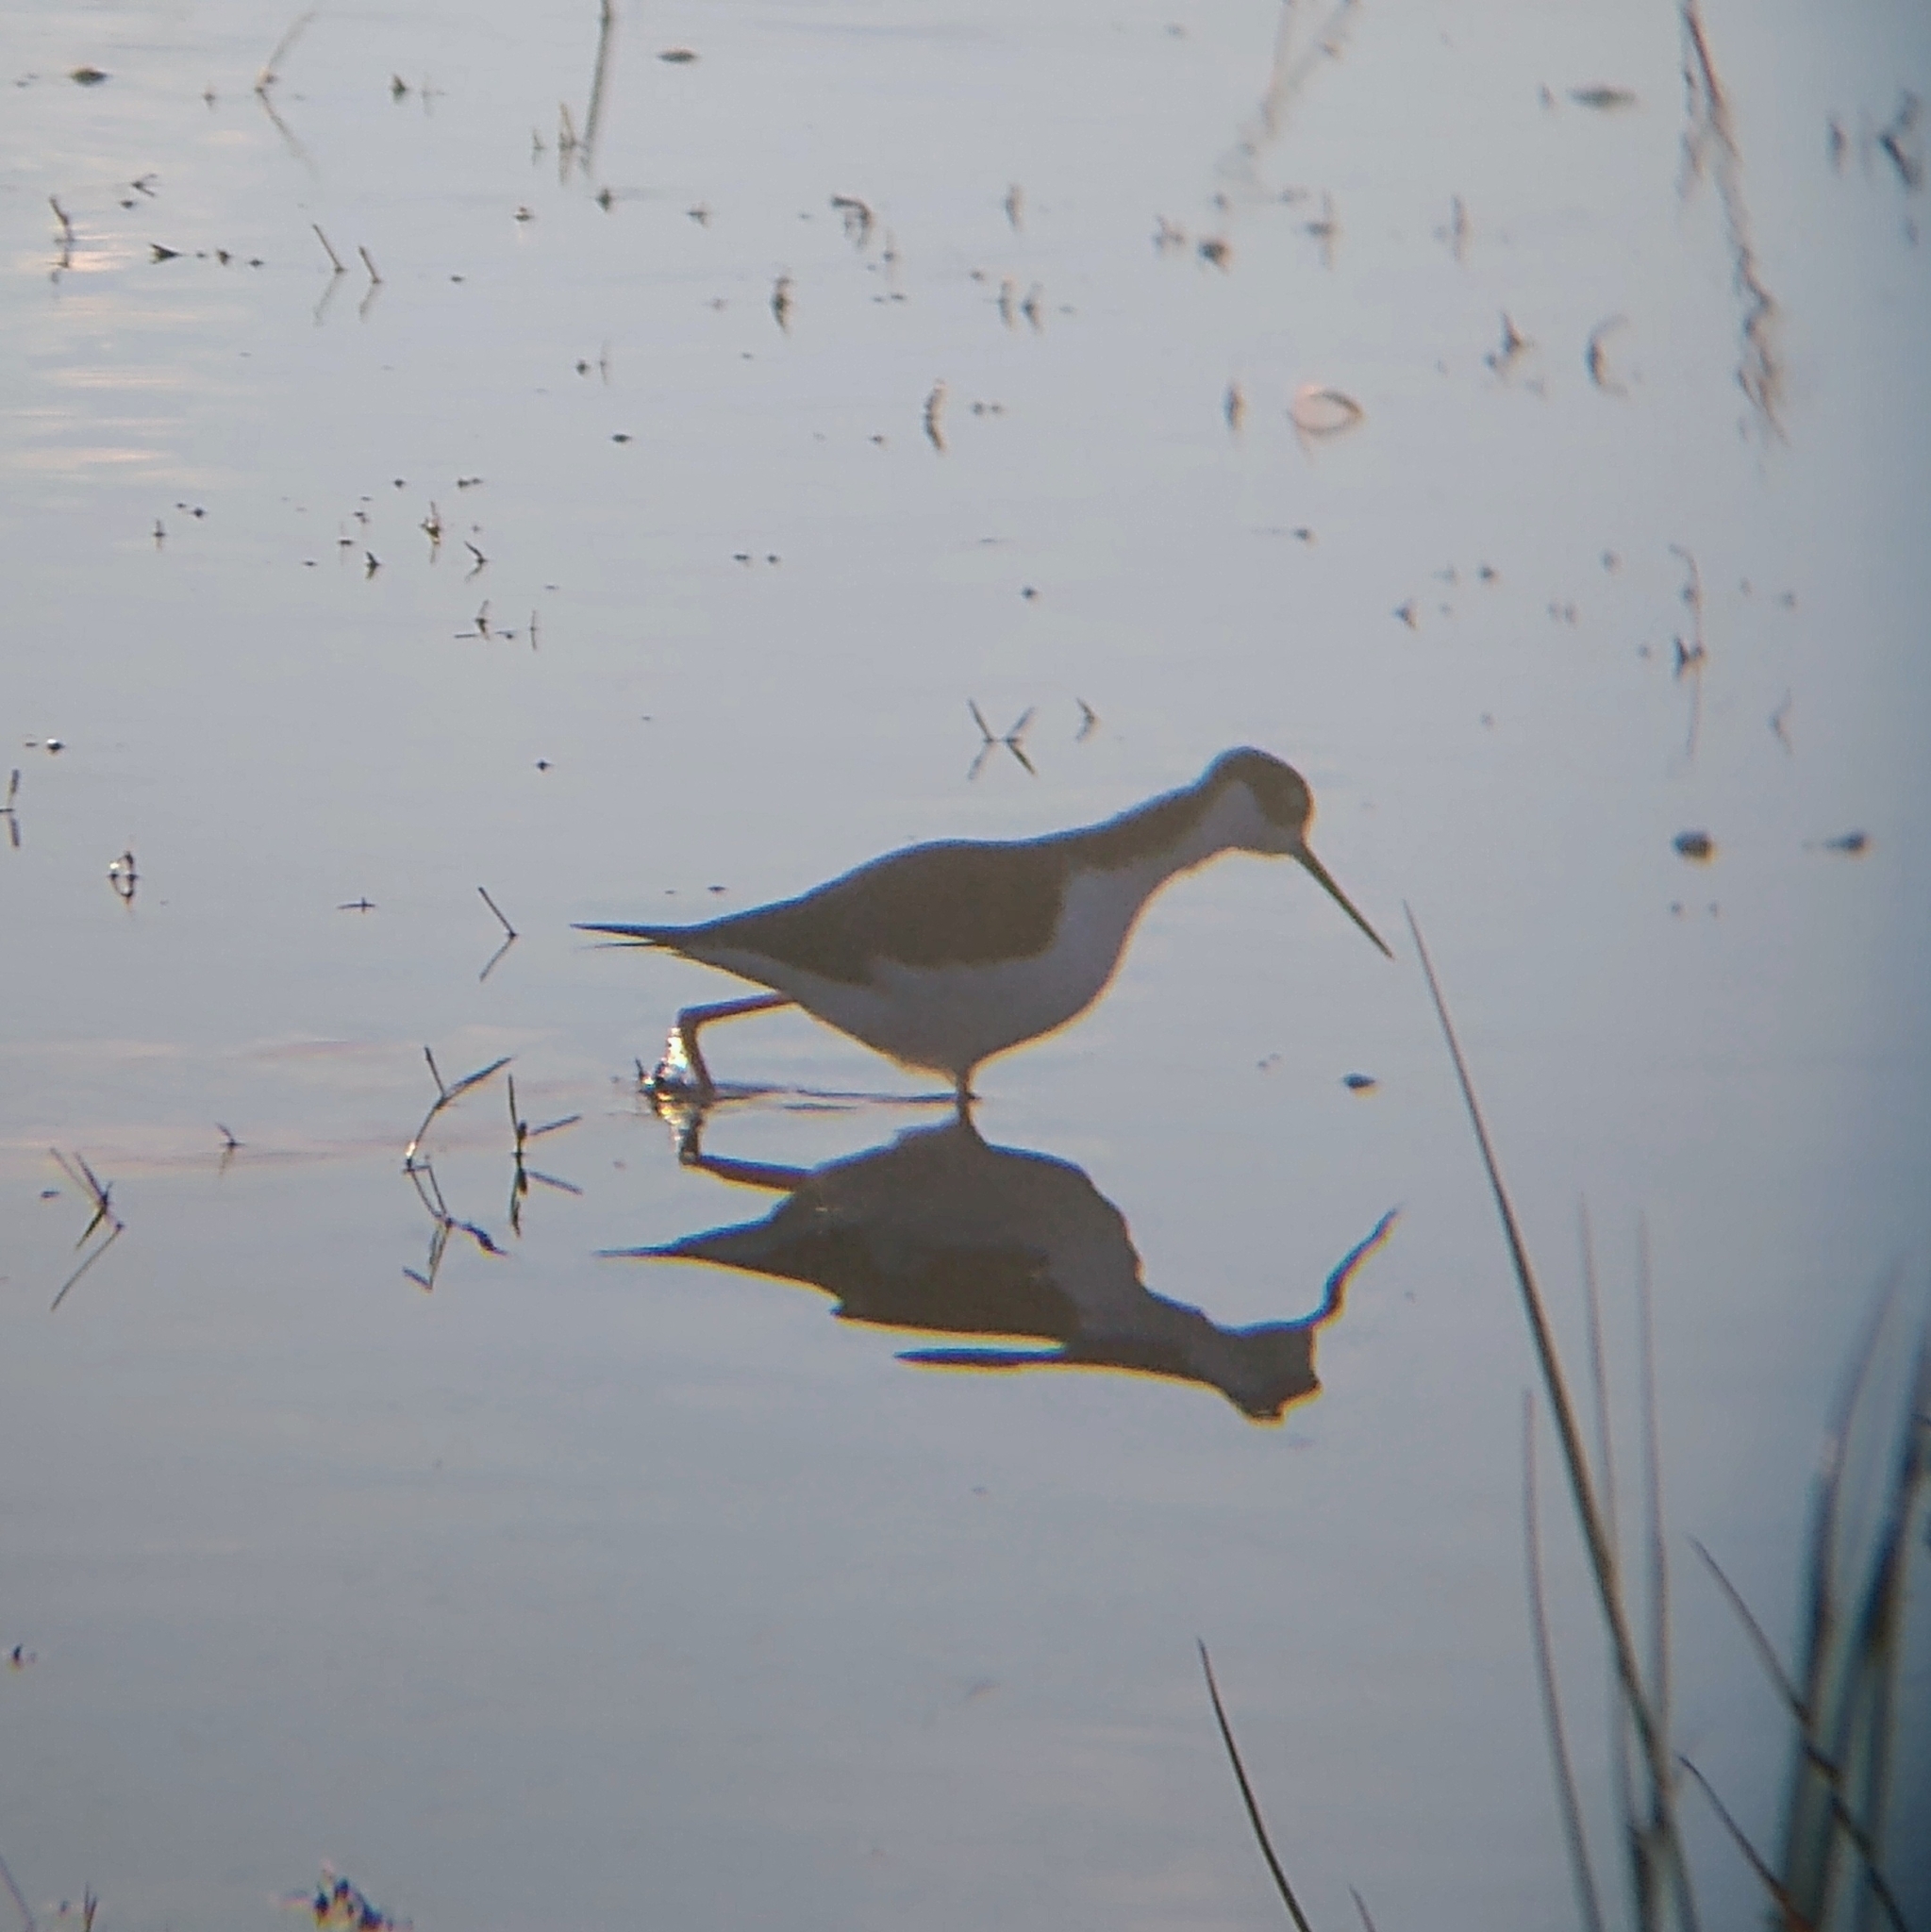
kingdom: Animalia
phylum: Chordata
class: Aves
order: Charadriiformes
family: Recurvirostridae
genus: Himantopus
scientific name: Himantopus mexicanus
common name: Black-necked stilt
